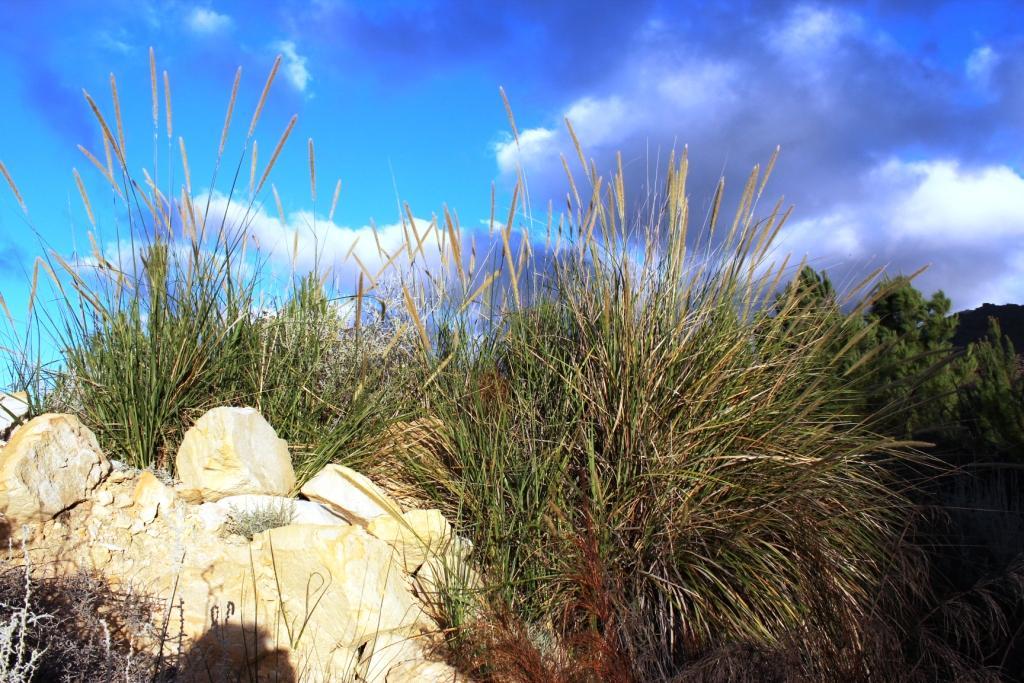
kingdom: Plantae
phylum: Tracheophyta
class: Liliopsida
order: Poales
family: Poaceae
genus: Cenchrus
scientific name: Cenchrus caudatus
